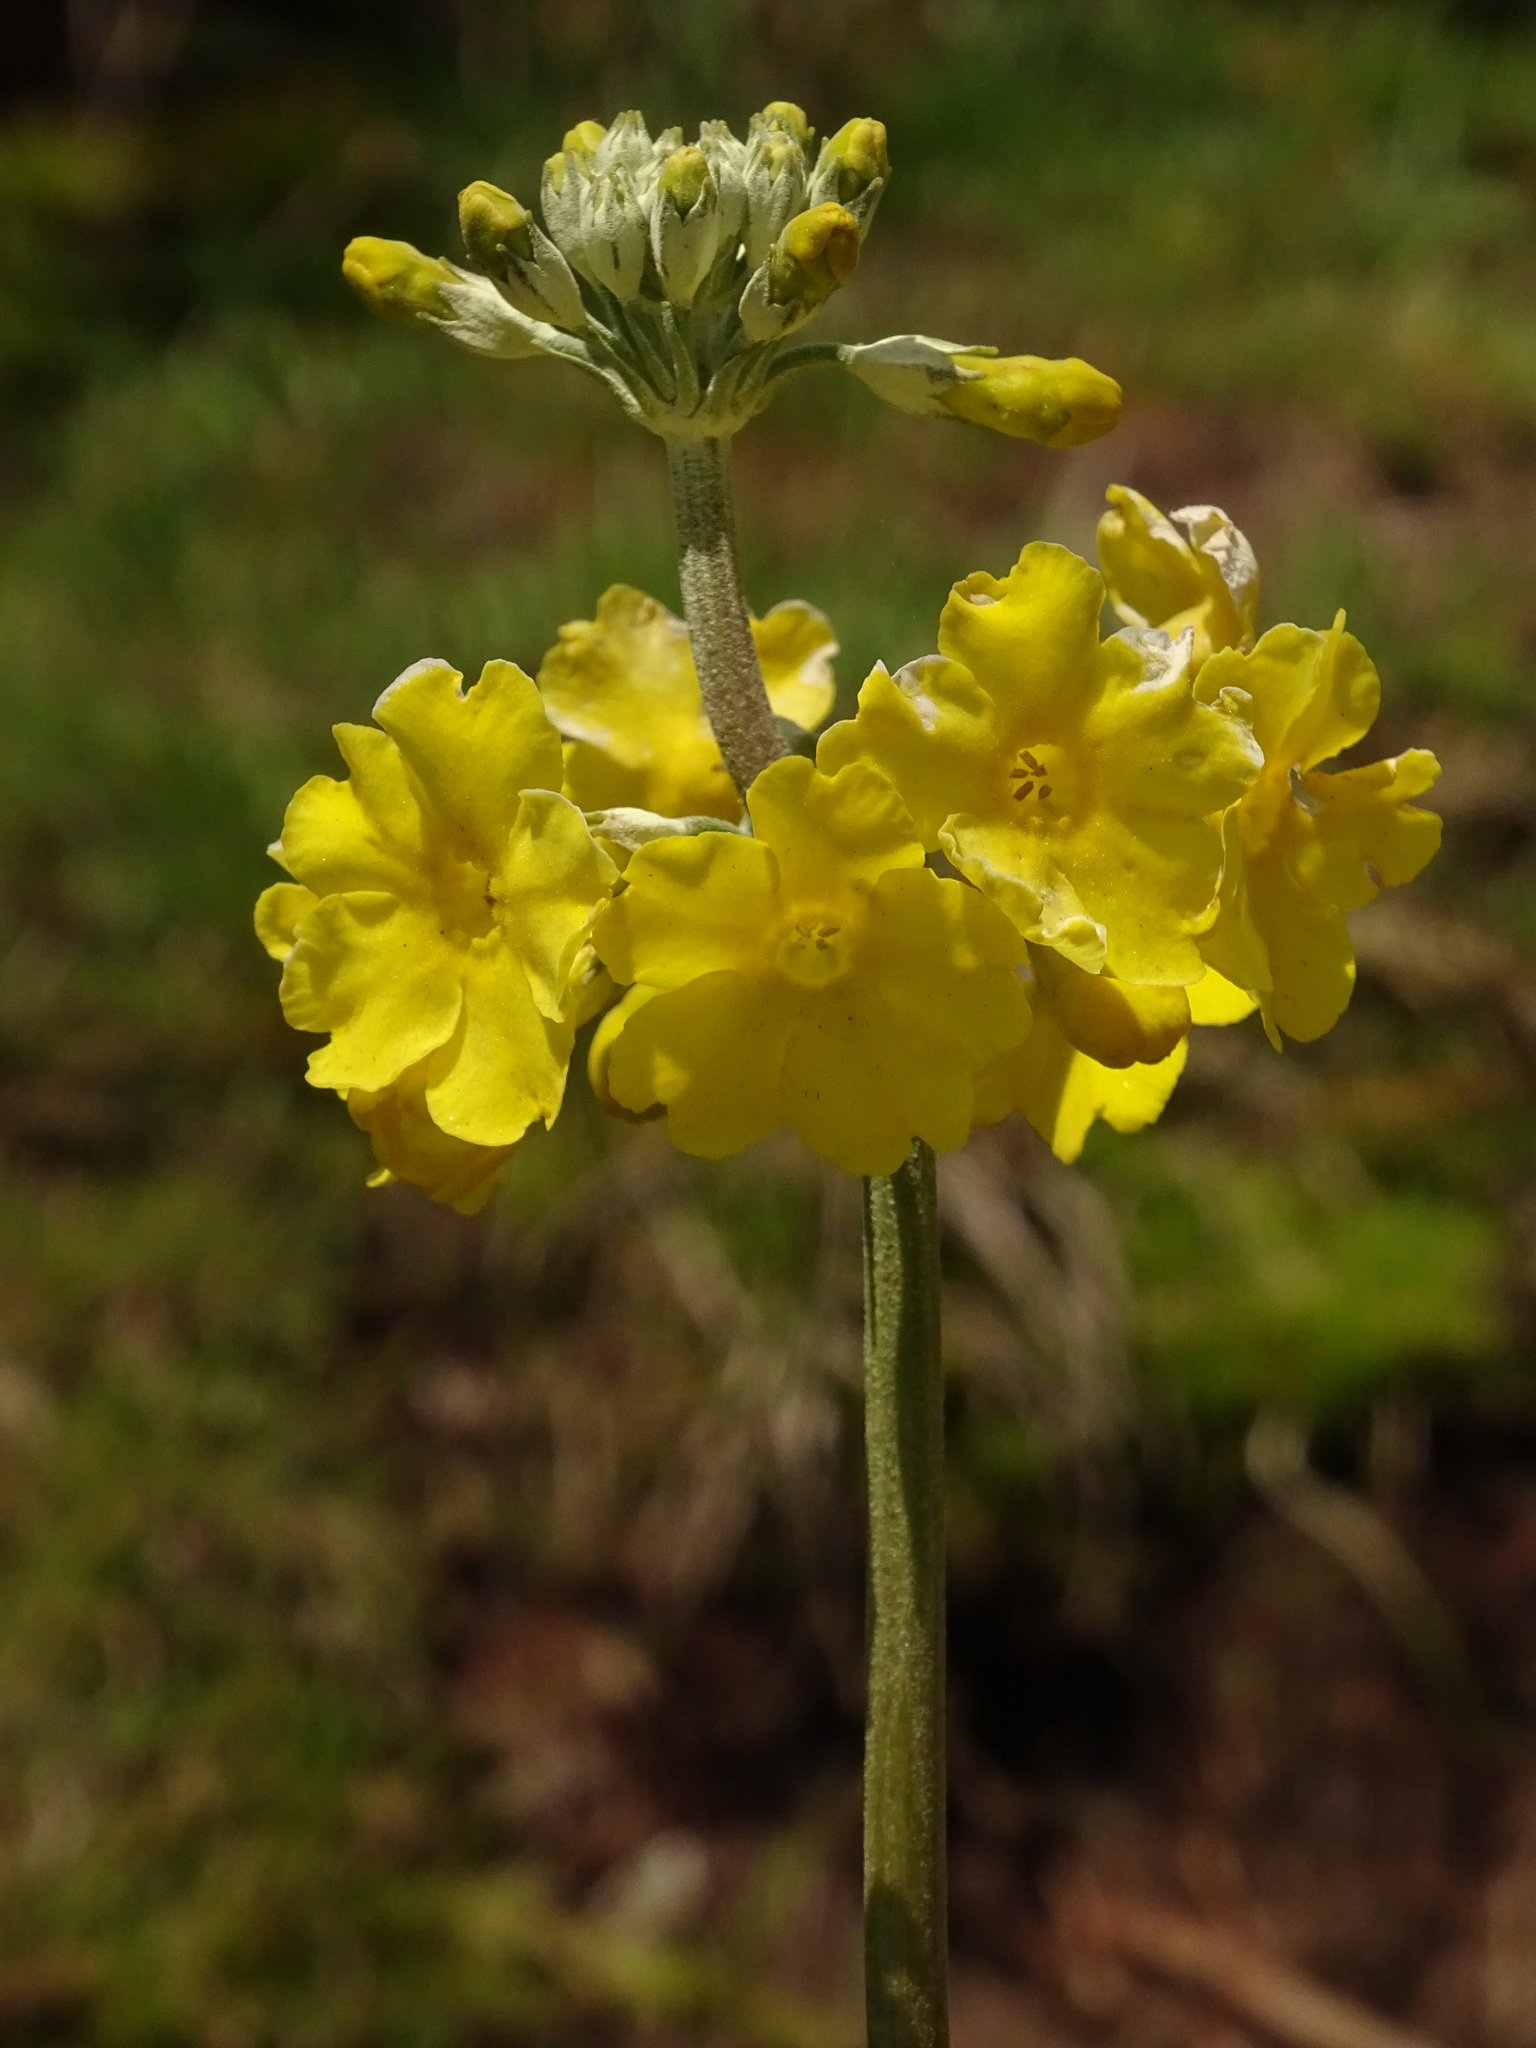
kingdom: Plantae
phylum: Tracheophyta
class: Magnoliopsida
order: Ericales
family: Primulaceae
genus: Primula
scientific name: Primula prolifera
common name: Glory-of-the-marsh
